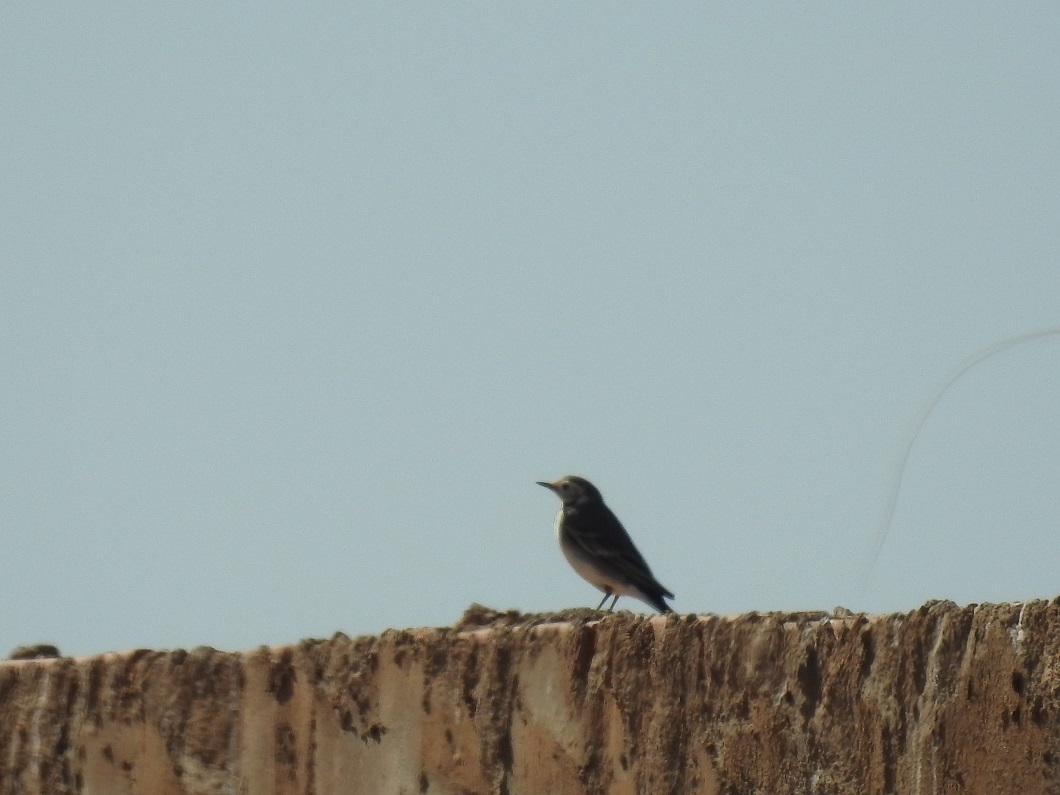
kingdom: Animalia
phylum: Chordata
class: Aves
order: Passeriformes
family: Motacillidae
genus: Motacilla
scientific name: Motacilla alba
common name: White wagtail
